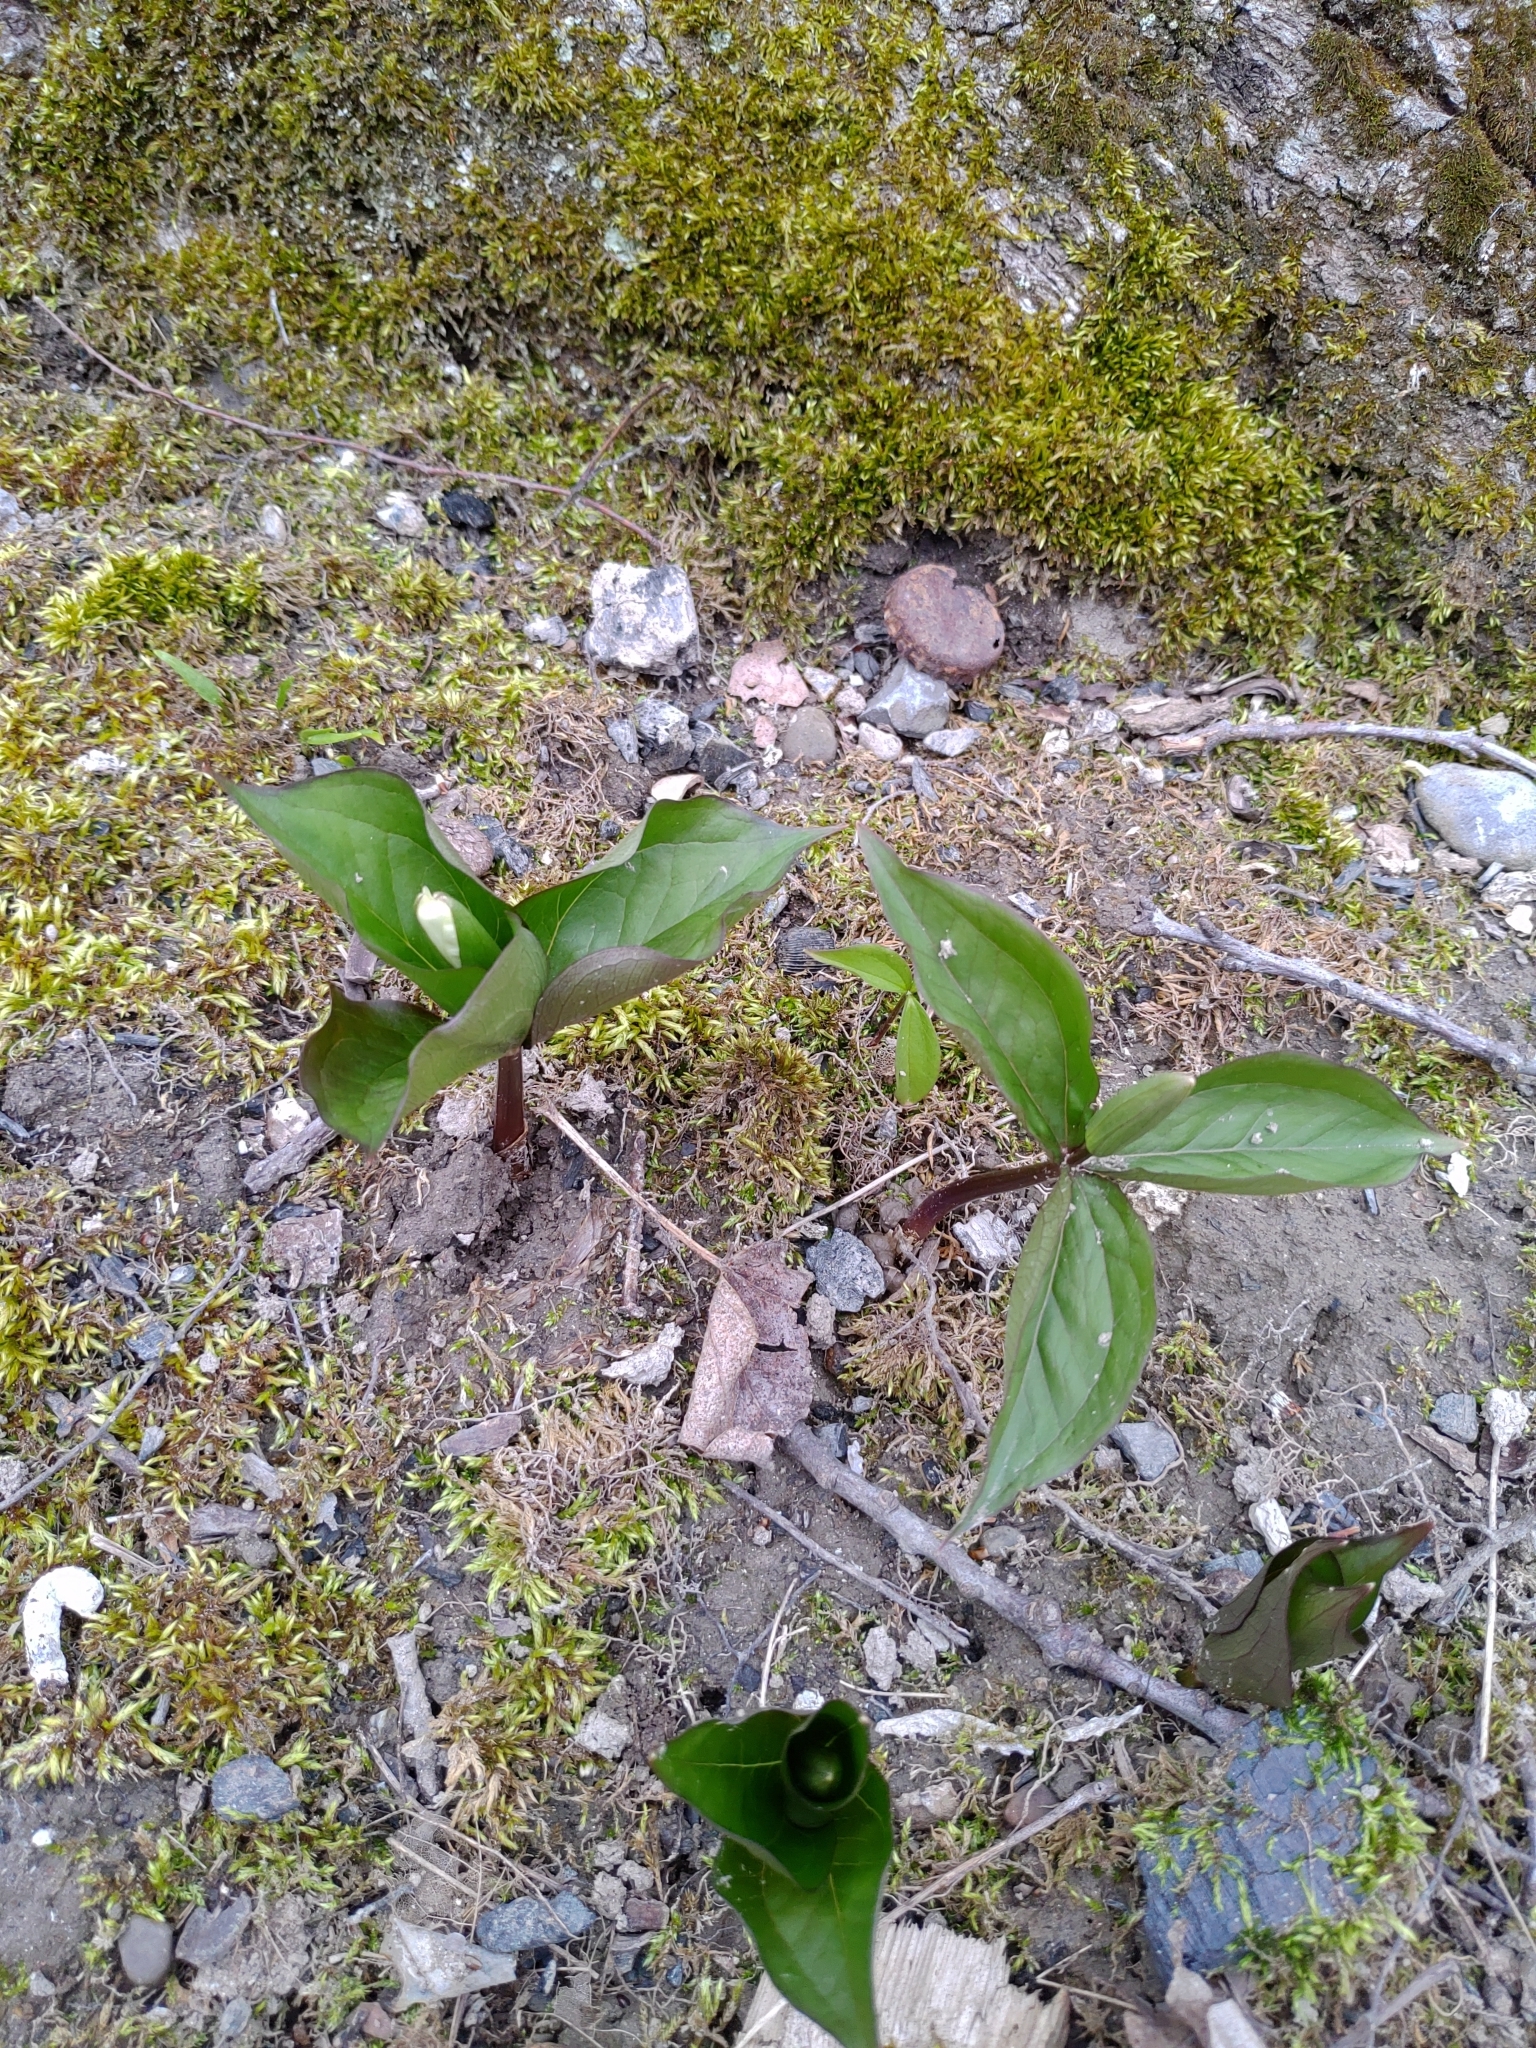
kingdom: Plantae
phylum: Tracheophyta
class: Liliopsida
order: Liliales
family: Melanthiaceae
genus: Trillium
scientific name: Trillium grandiflorum
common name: Great white trillium
